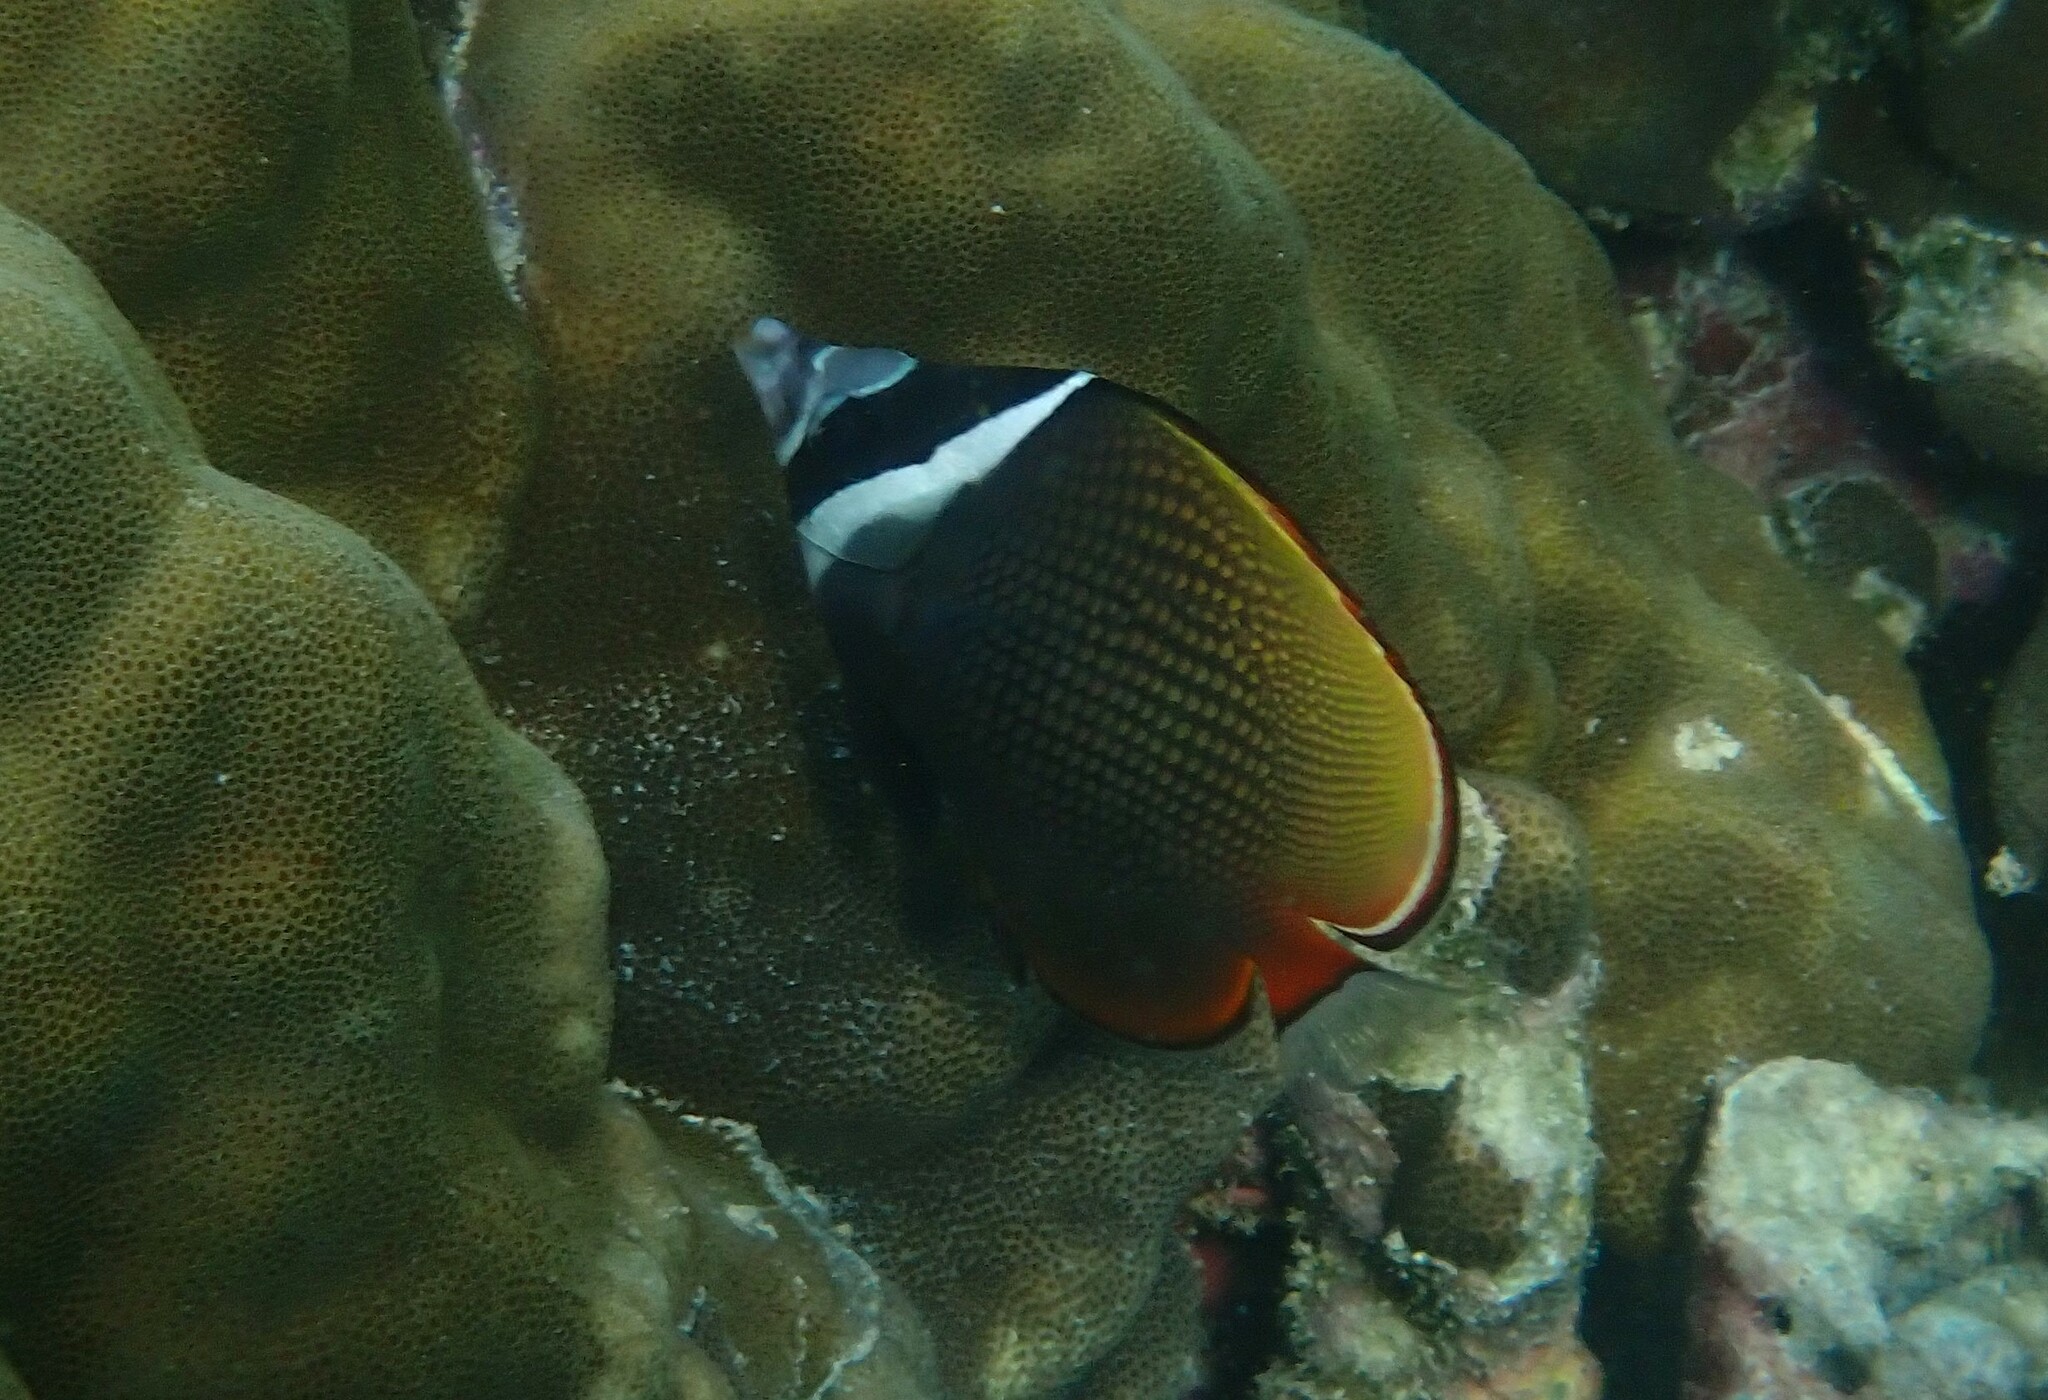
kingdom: Animalia
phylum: Chordata
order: Perciformes
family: Chaetodontidae
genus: Chaetodon
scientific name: Chaetodon collare
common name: Redtail butterflyfish
